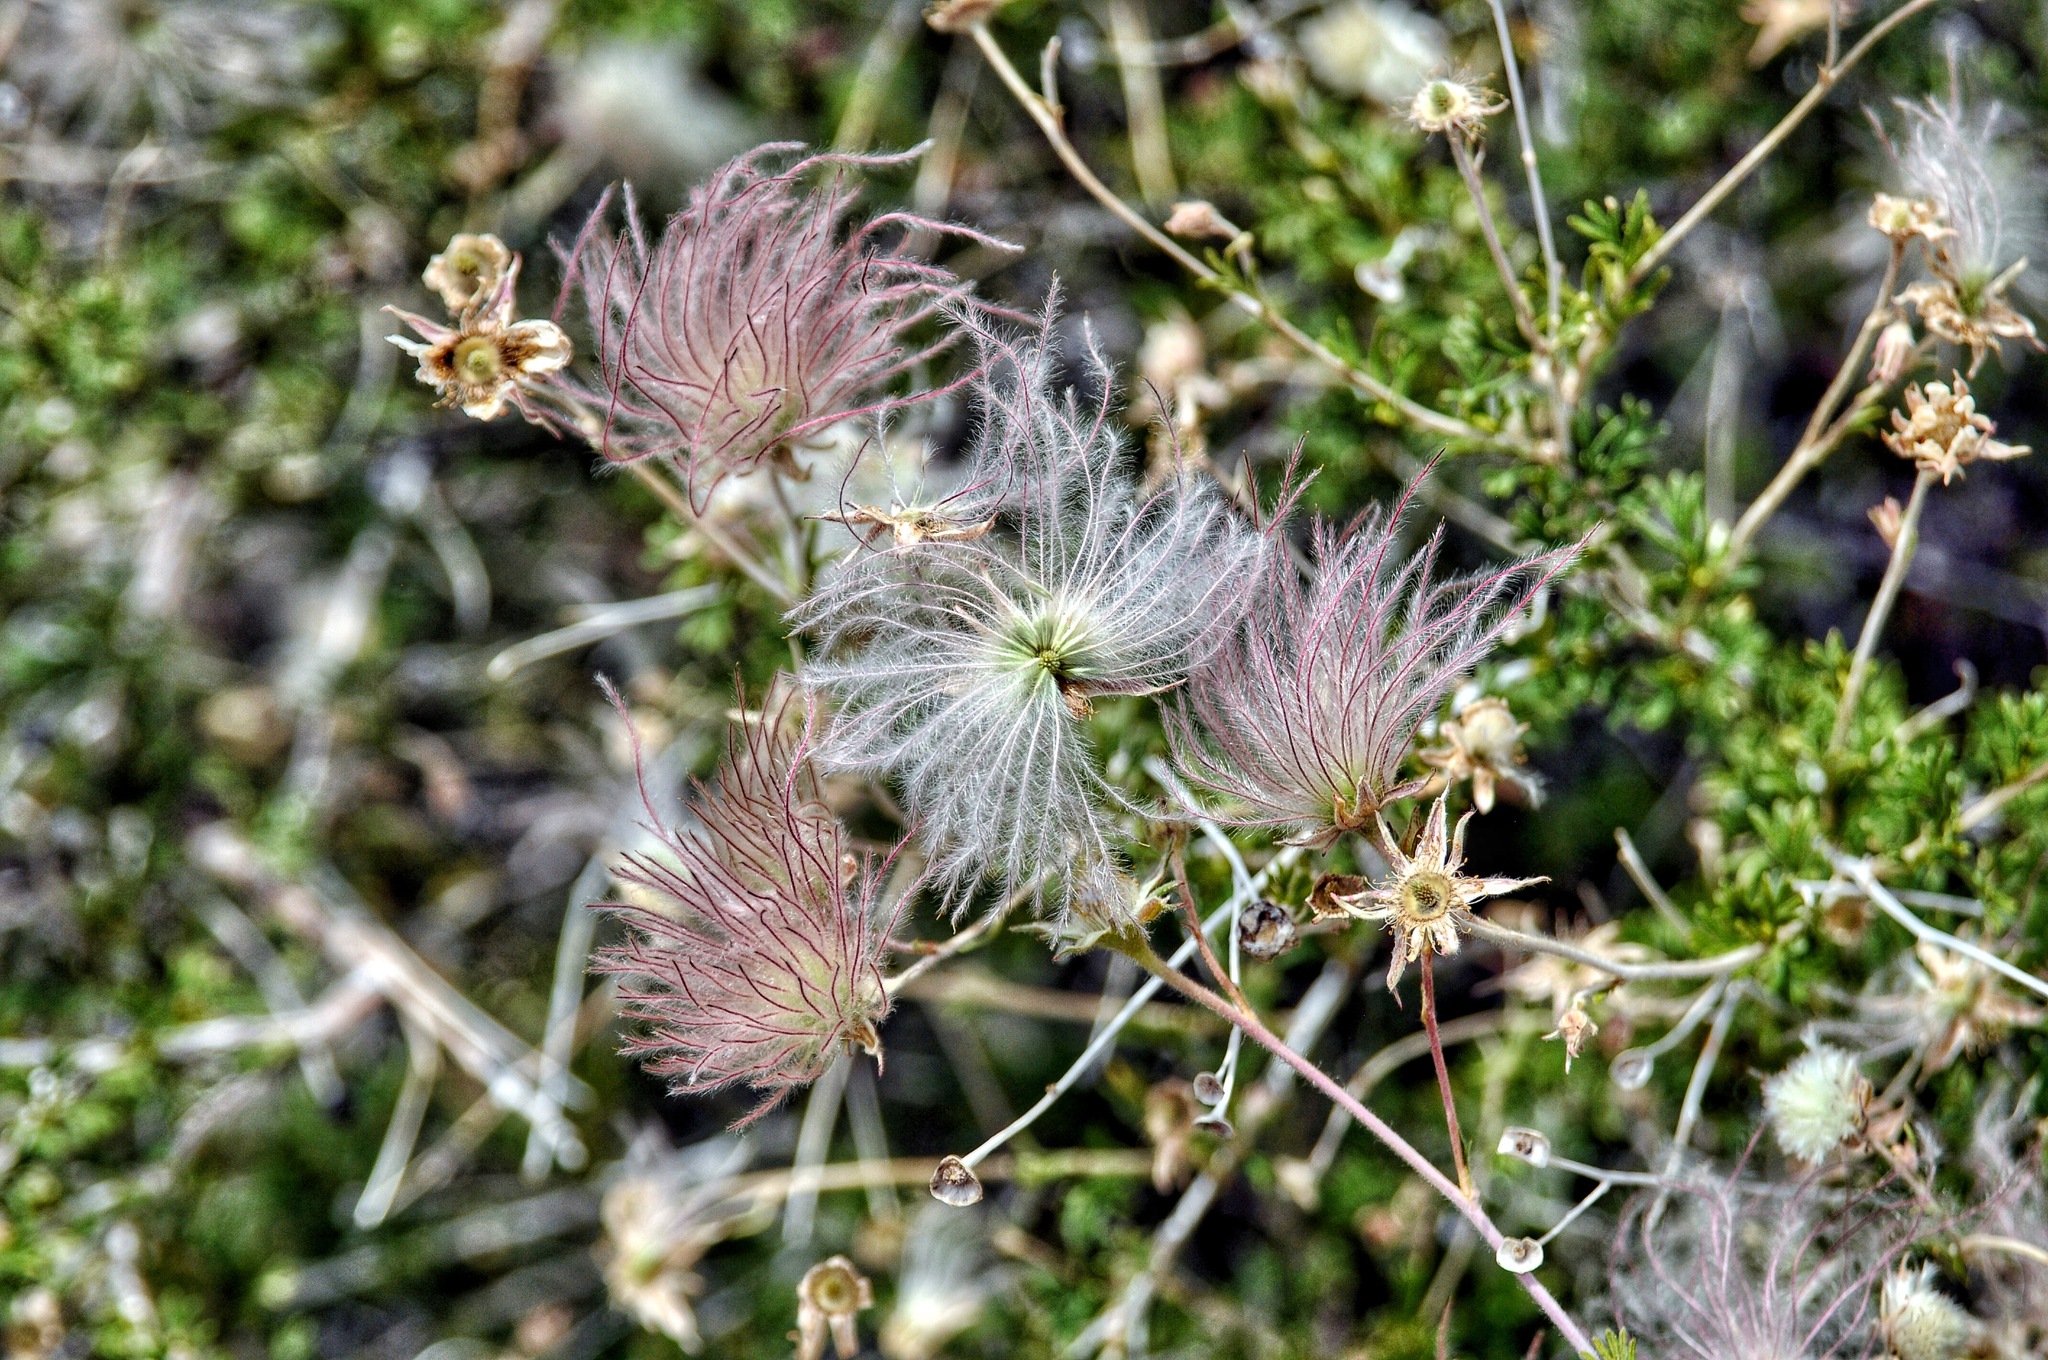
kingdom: Plantae
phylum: Tracheophyta
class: Magnoliopsida
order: Rosales
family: Rosaceae
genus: Fallugia
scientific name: Fallugia paradoxa
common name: Apache-plume
